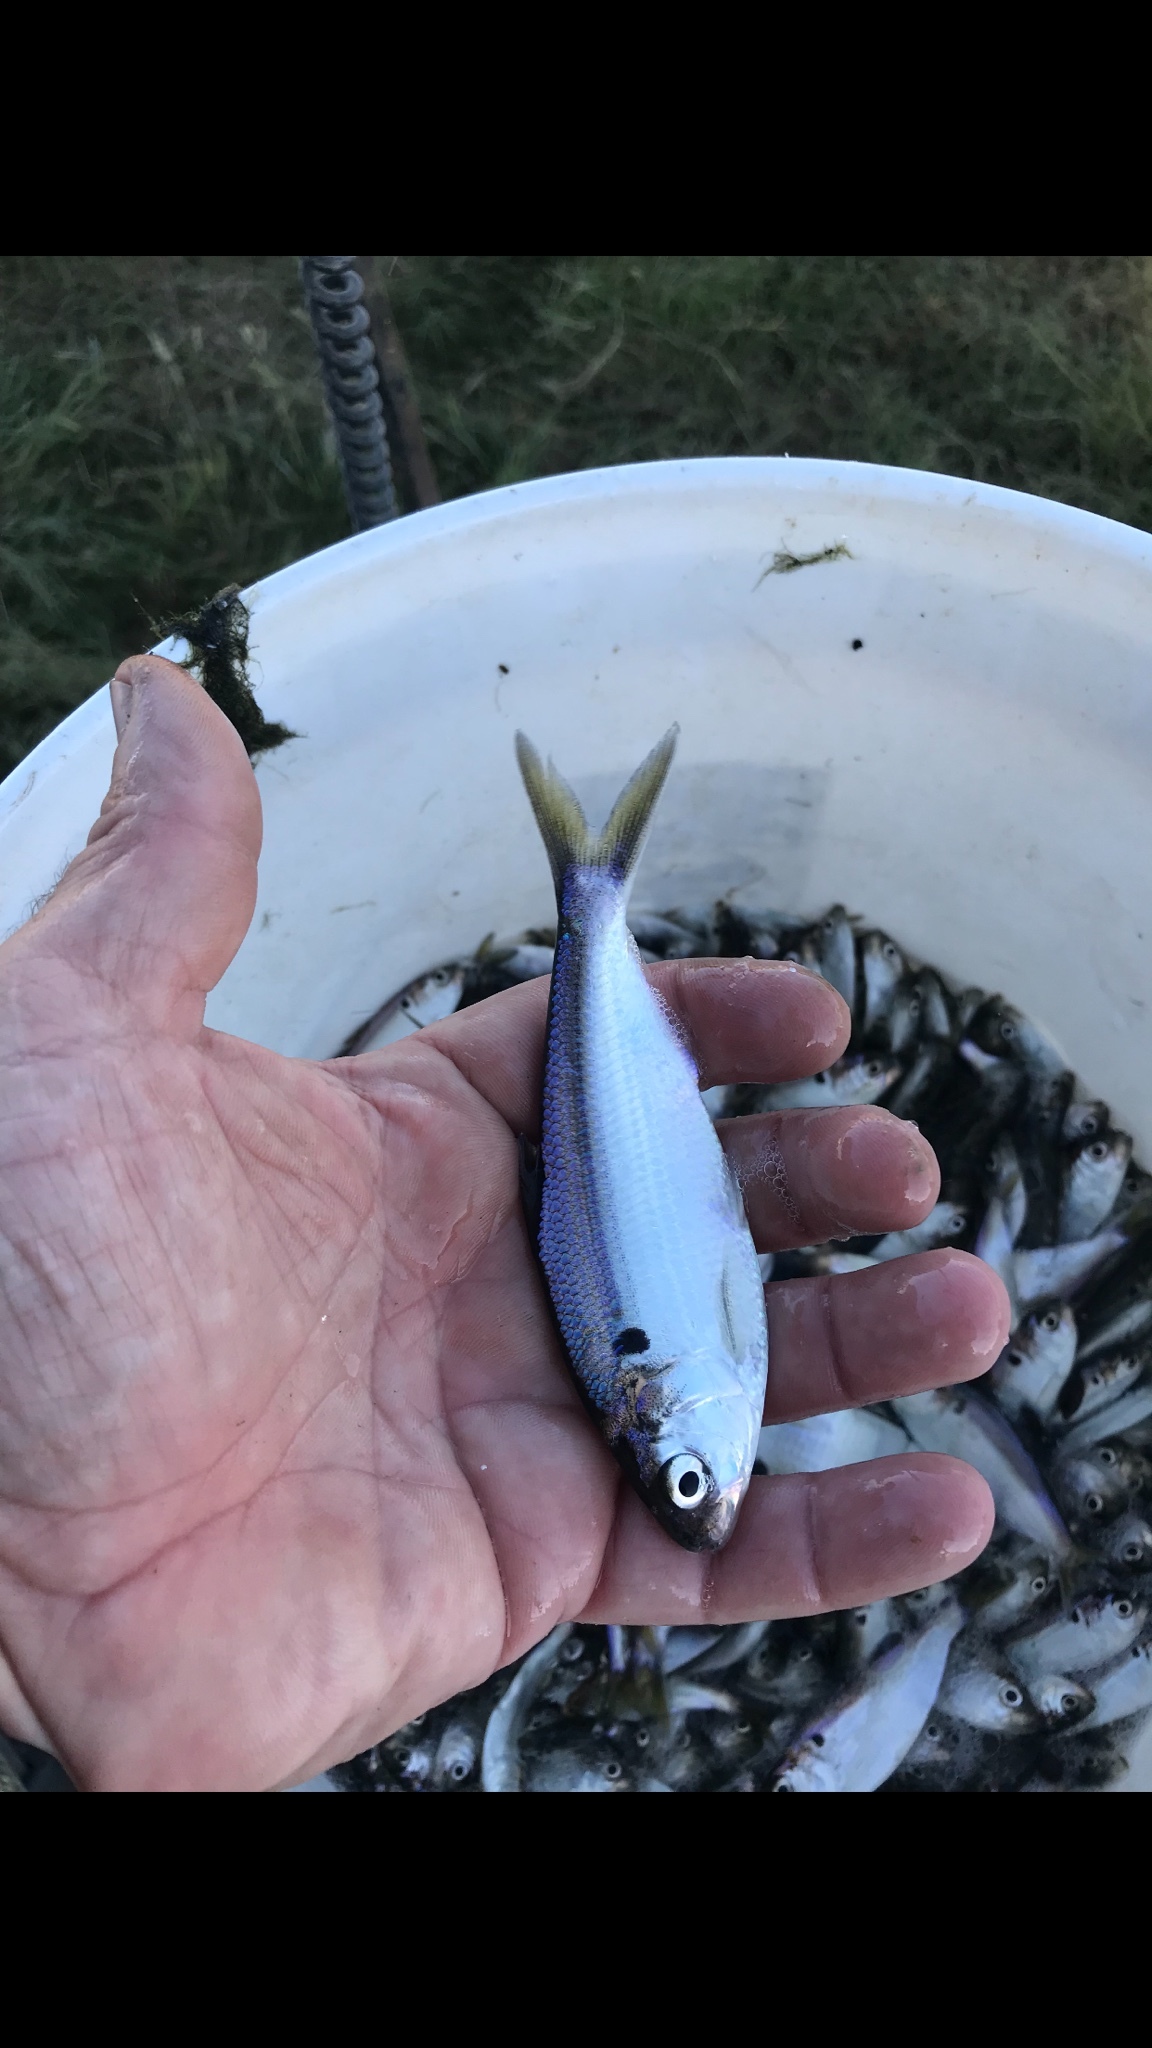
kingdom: Animalia
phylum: Chordata
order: Clupeiformes
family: Clupeidae
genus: Dorosoma
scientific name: Dorosoma petenense
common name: Threadfin shad
